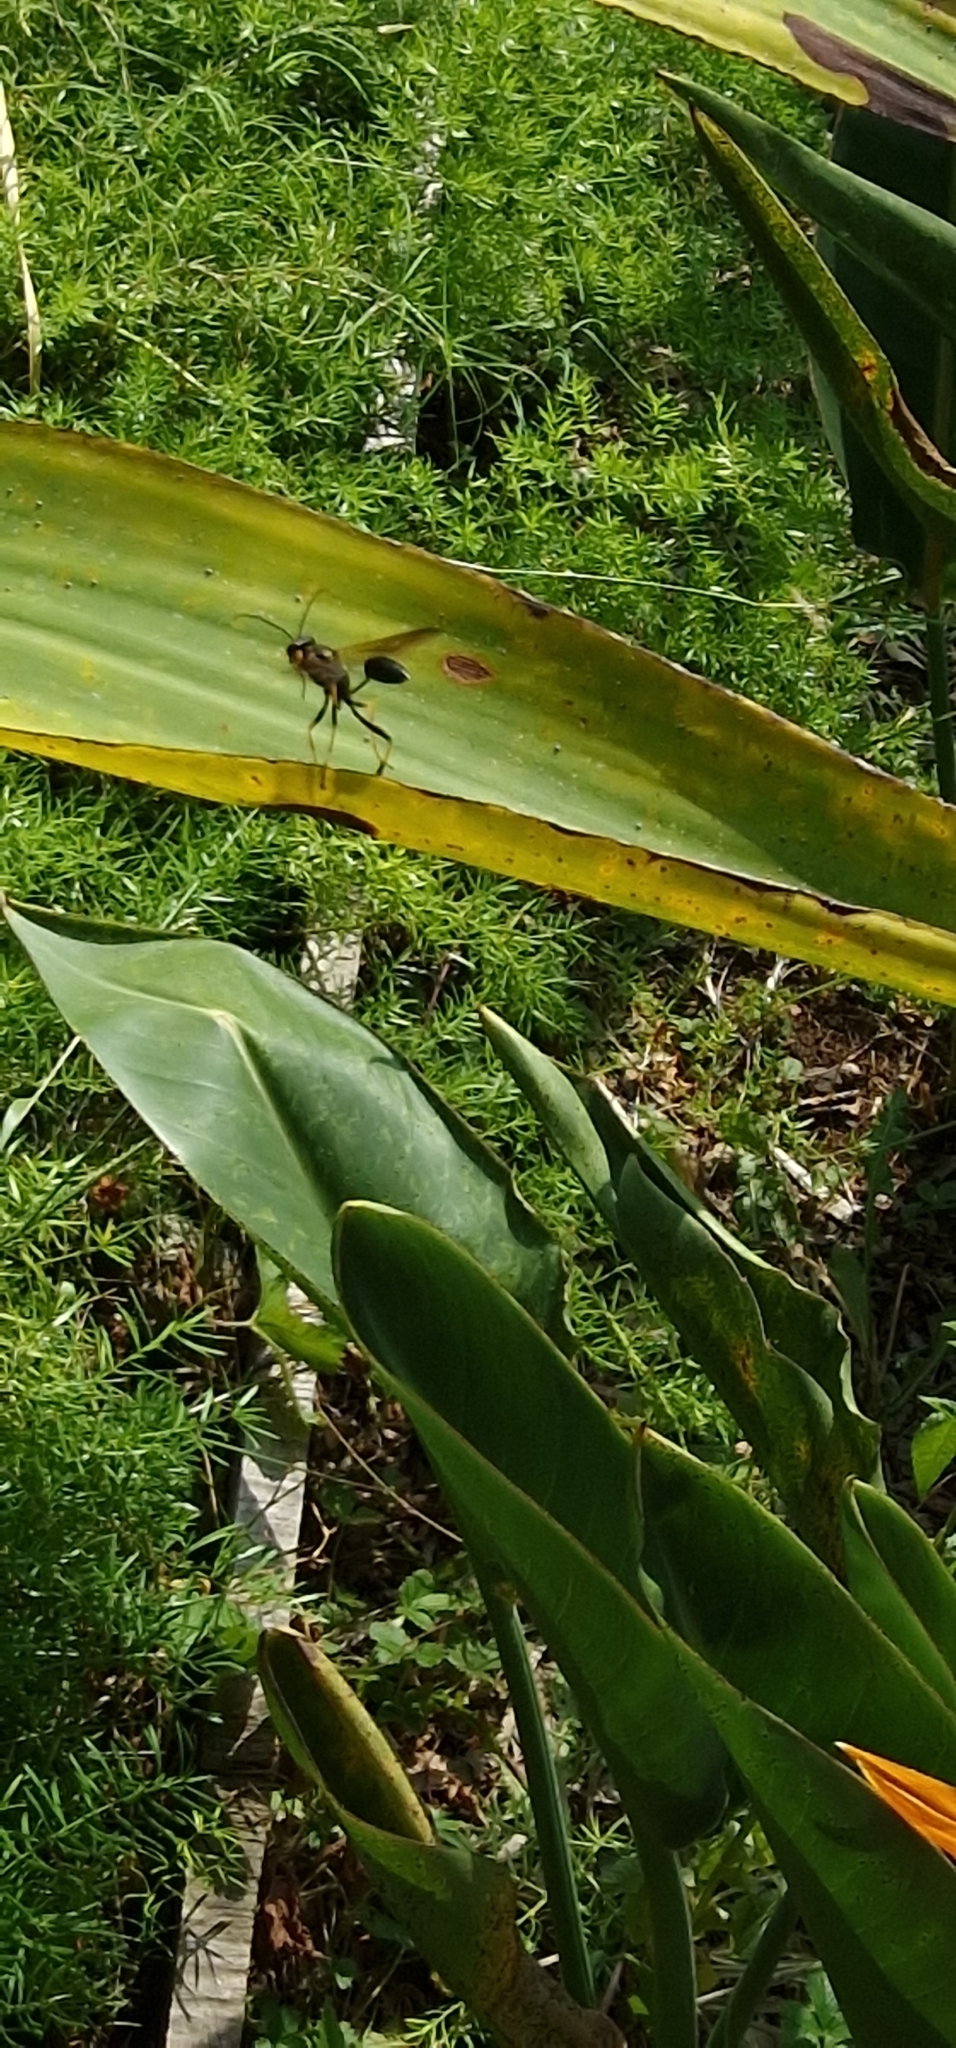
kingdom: Animalia
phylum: Arthropoda
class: Insecta
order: Hymenoptera
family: Sphecidae
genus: Sceliphron
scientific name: Sceliphron caementarium
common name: Mud dauber
